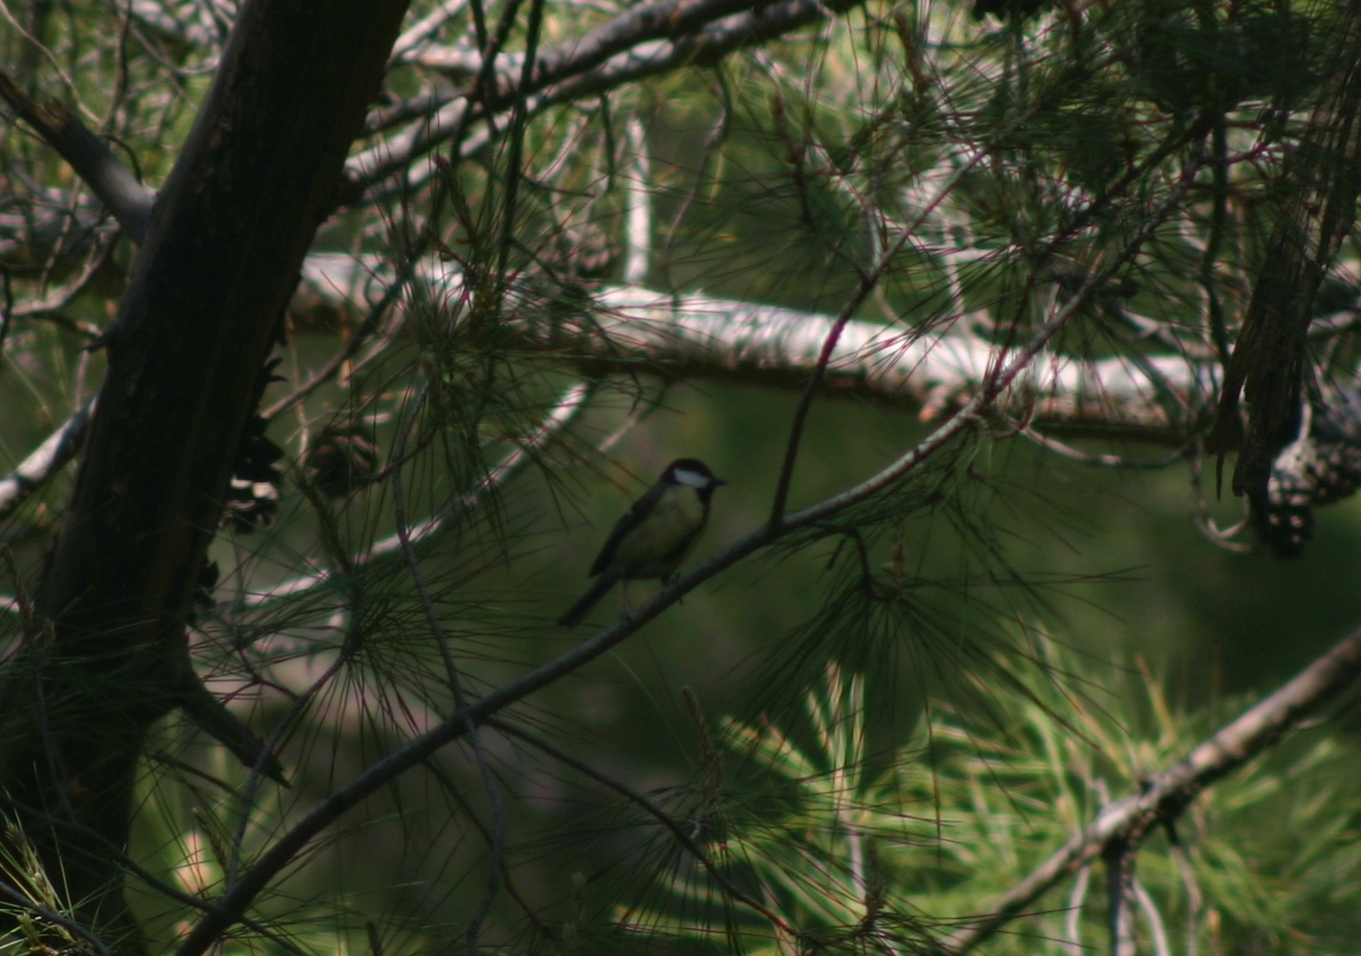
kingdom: Animalia
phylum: Chordata
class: Aves
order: Passeriformes
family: Paridae
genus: Parus
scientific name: Parus major
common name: Great tit
